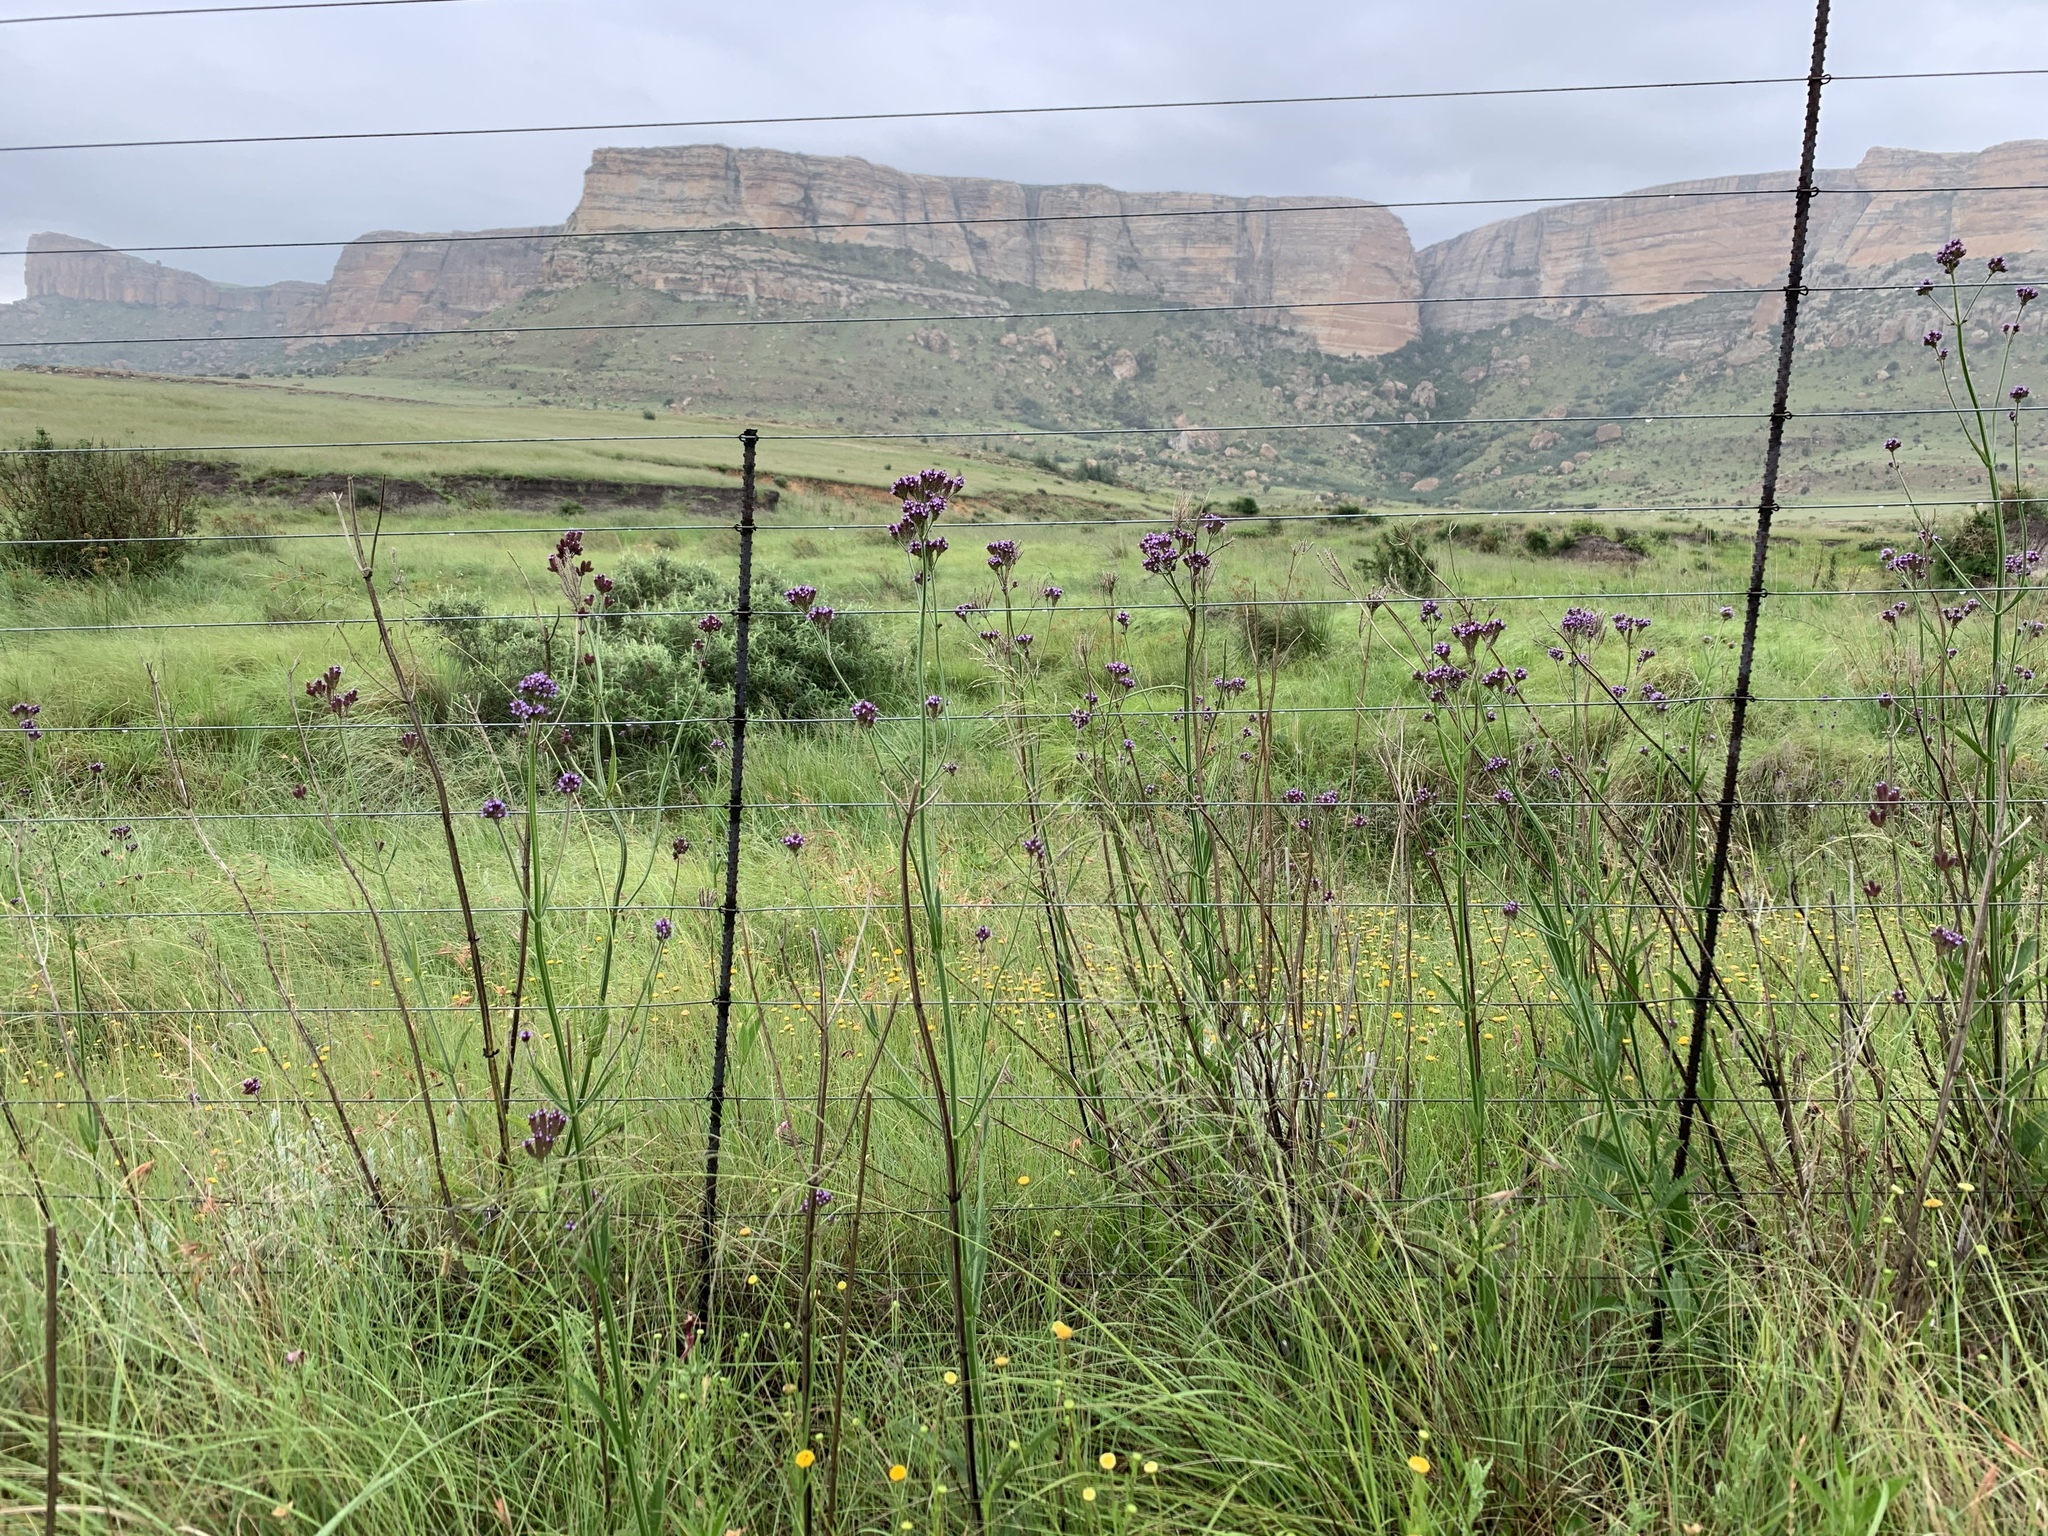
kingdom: Plantae
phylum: Tracheophyta
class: Magnoliopsida
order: Lamiales
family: Verbenaceae
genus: Verbena
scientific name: Verbena bonariensis
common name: Purpletop vervain
